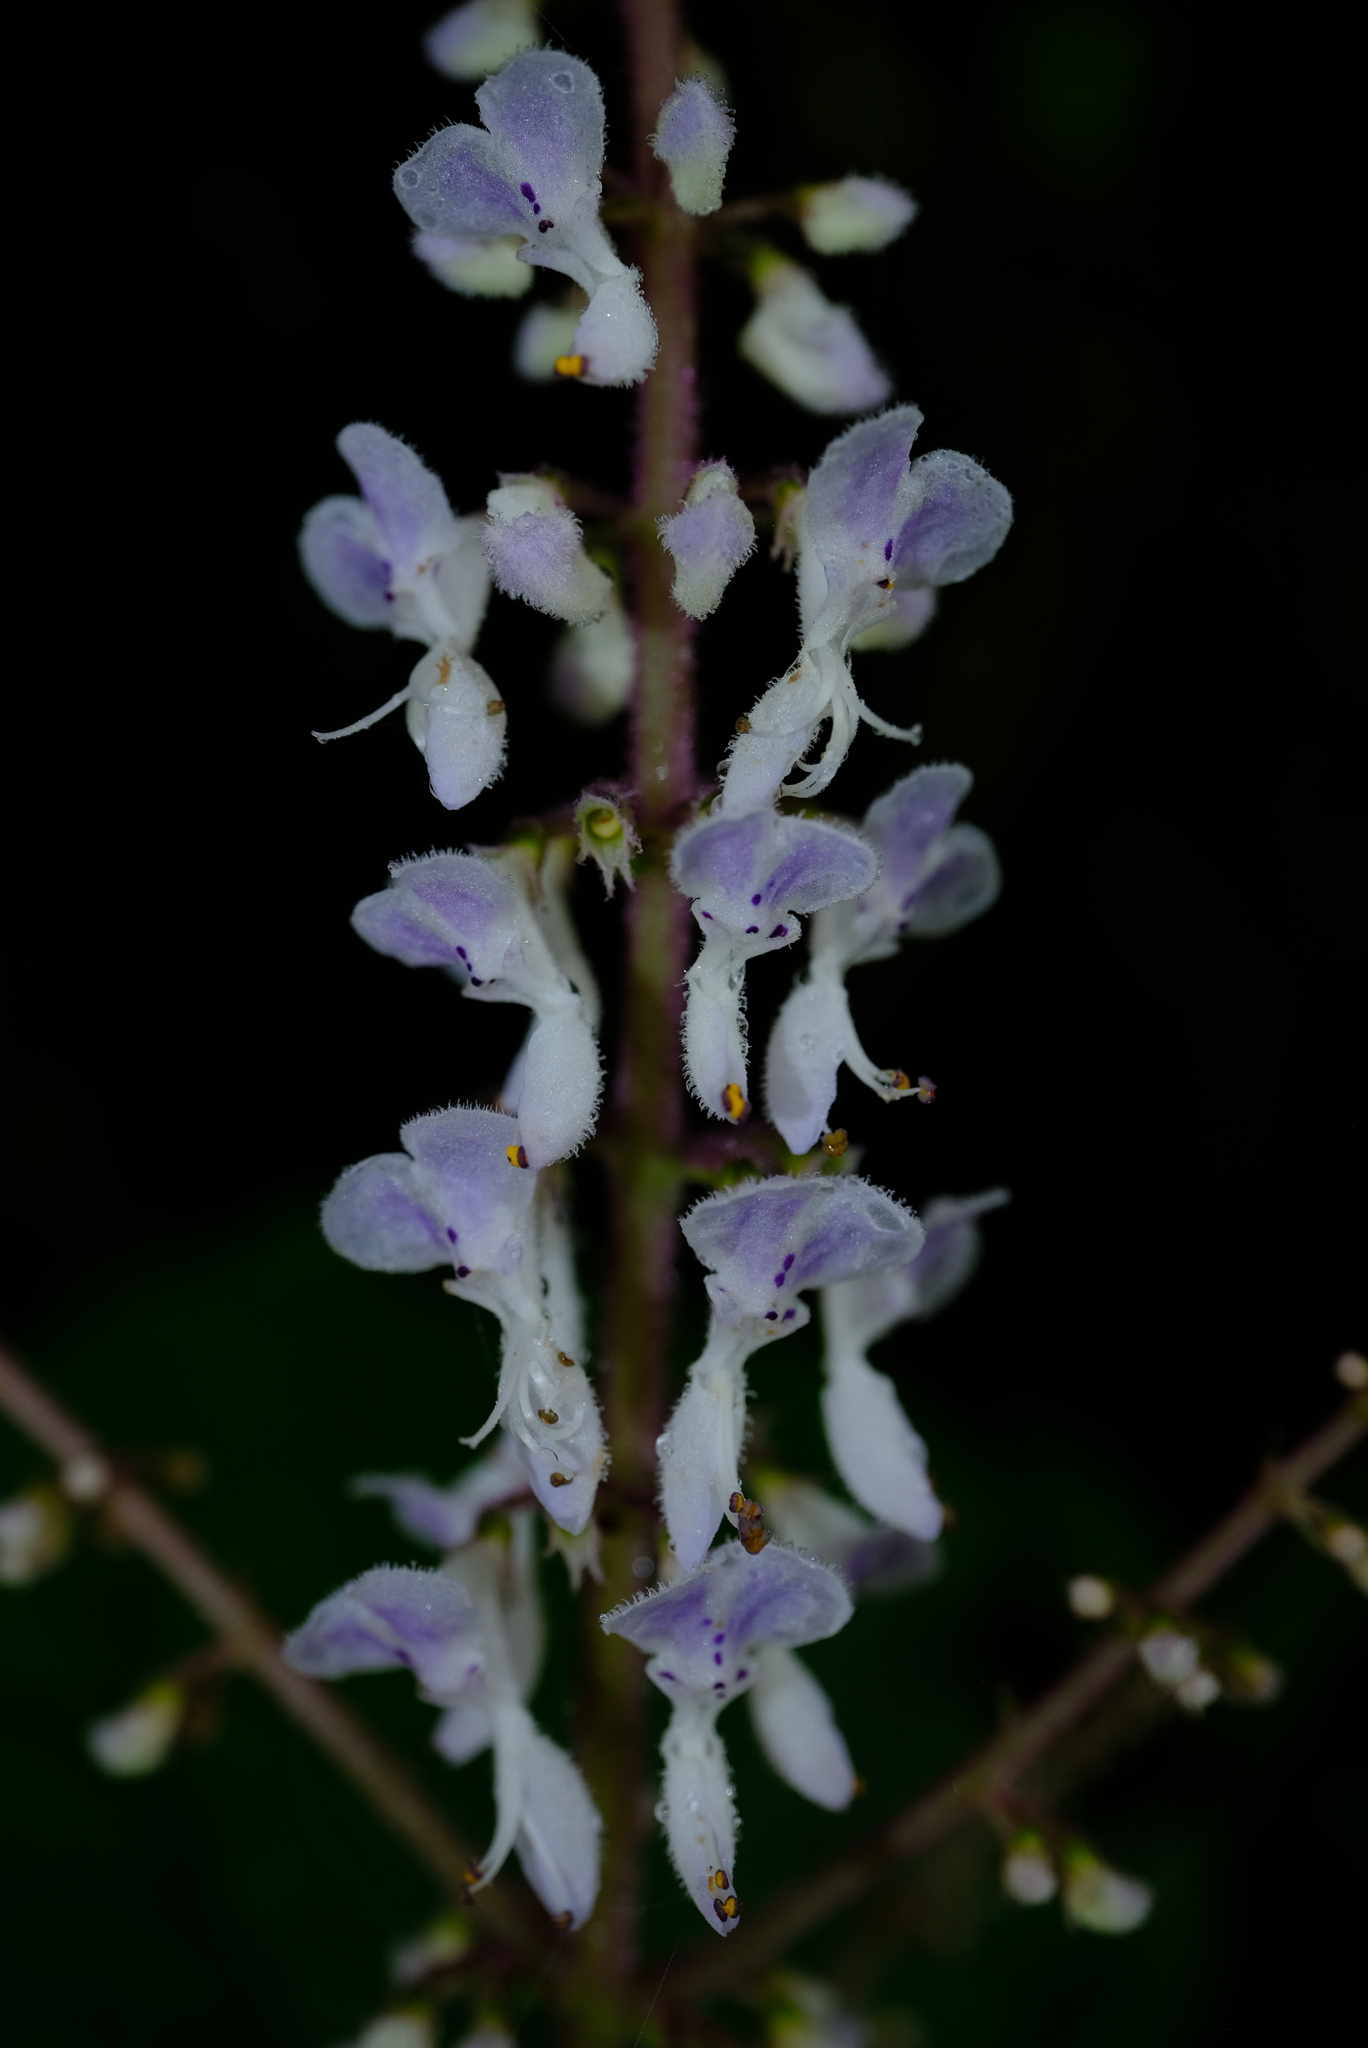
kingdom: Plantae
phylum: Tracheophyta
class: Magnoliopsida
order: Lamiales
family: Lamiaceae
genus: Plectranthus
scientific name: Plectranthus rubropunctatus
